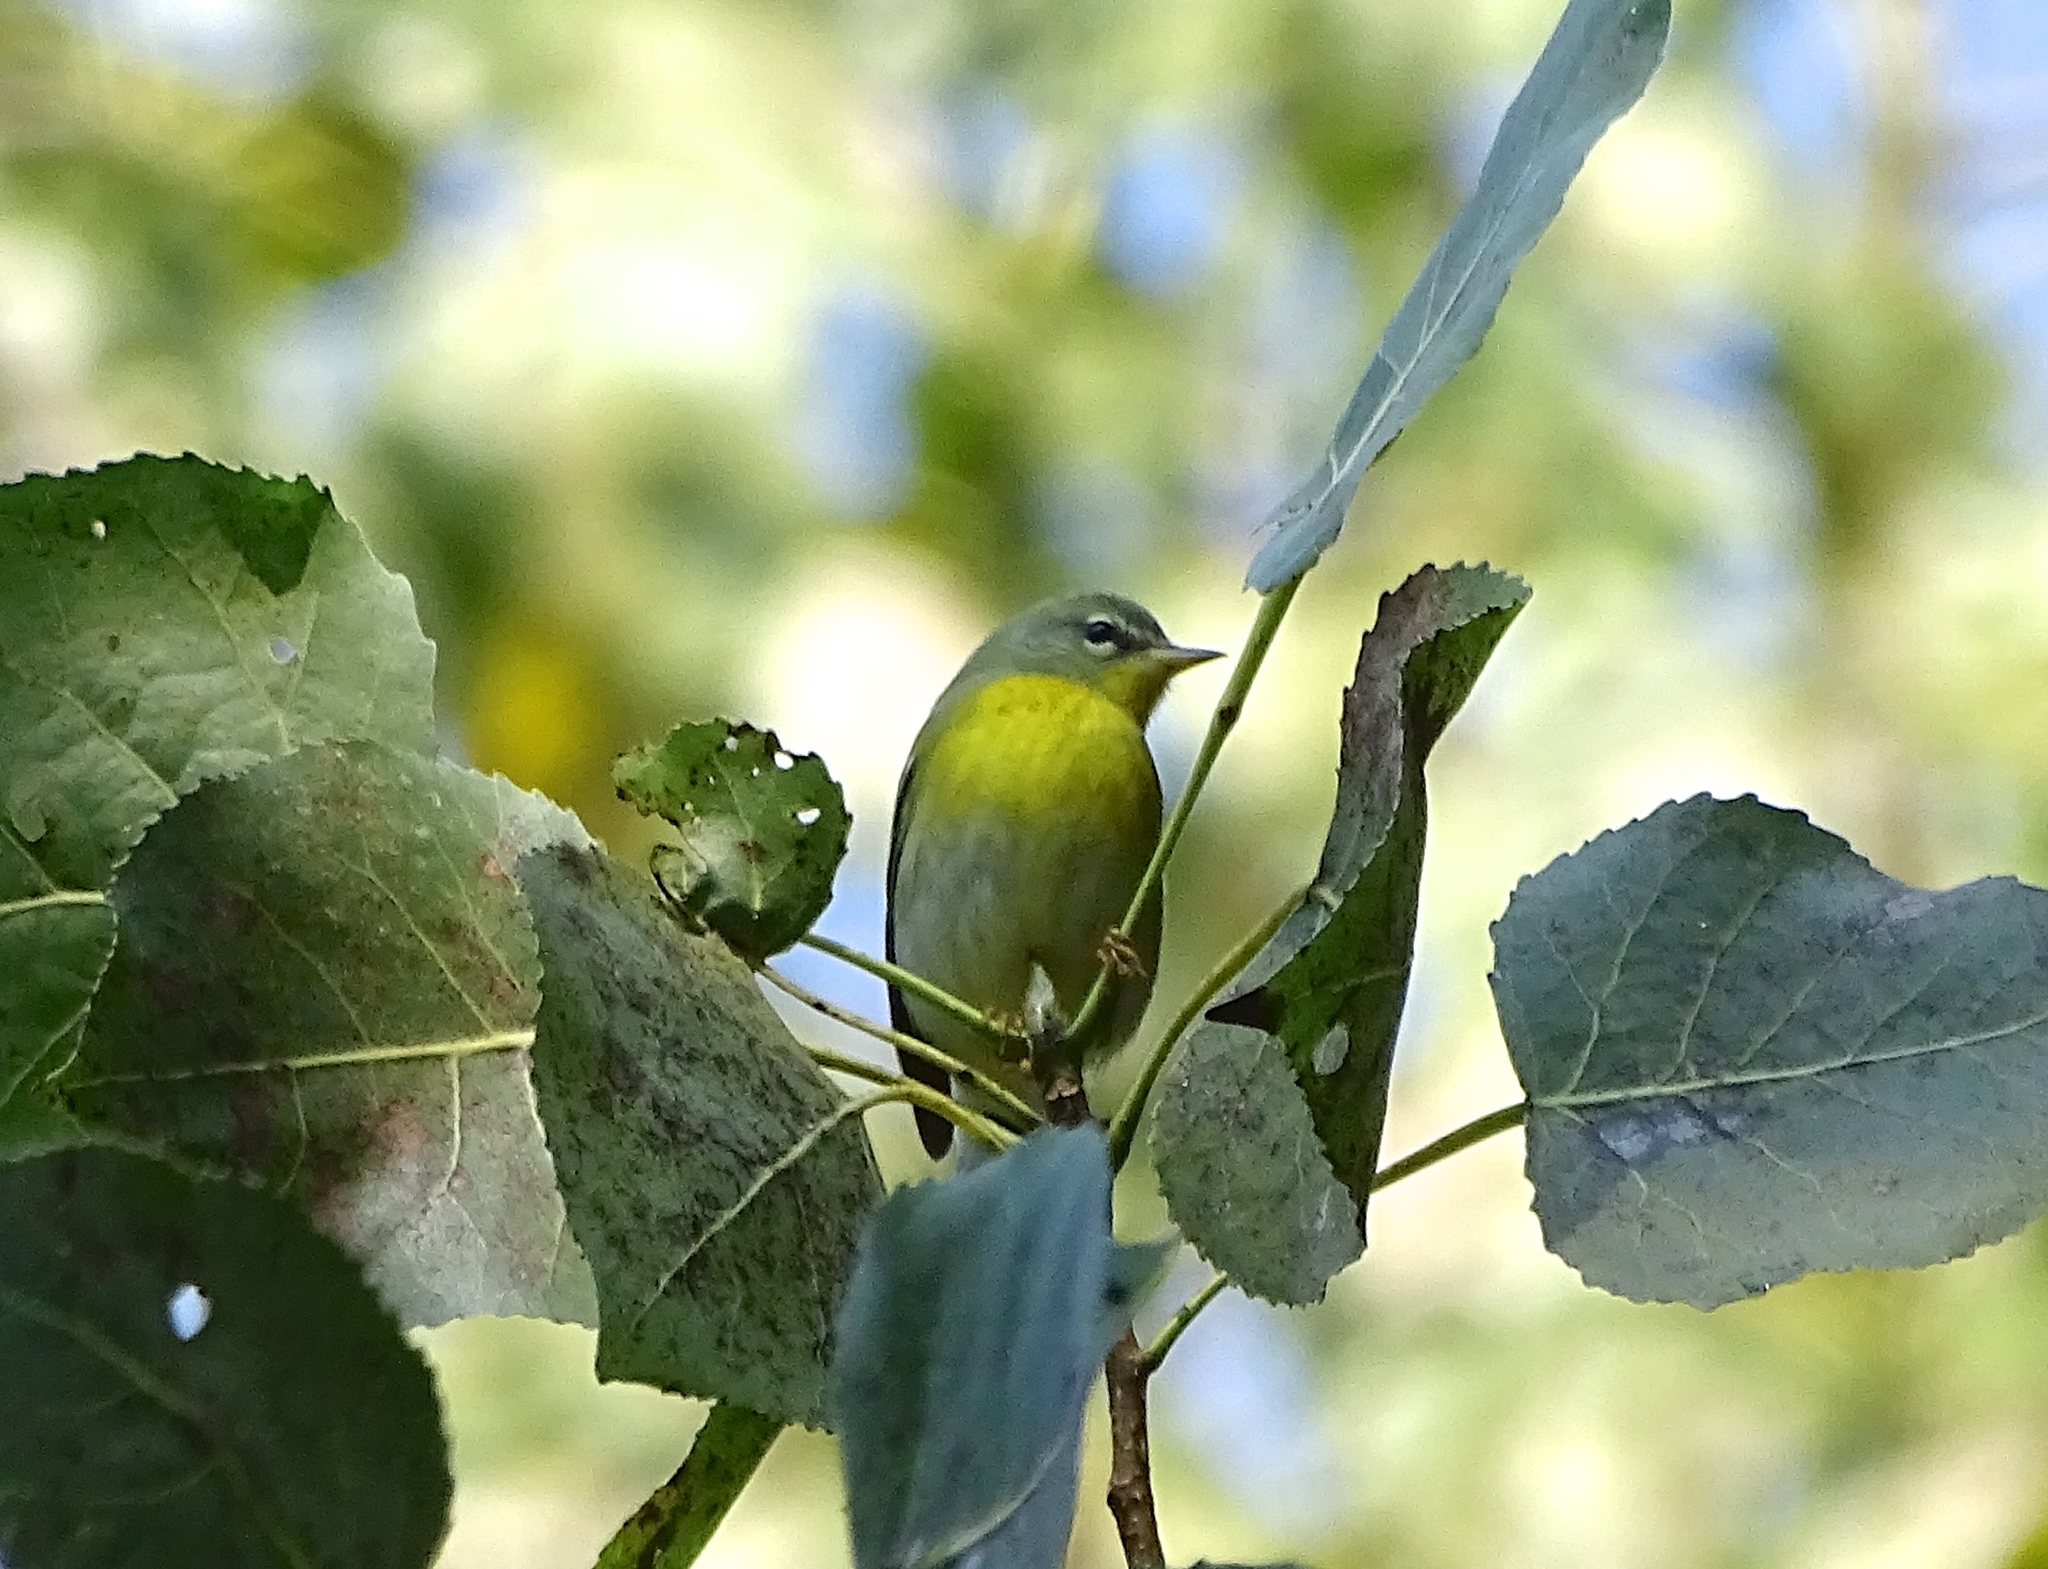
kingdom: Animalia
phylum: Chordata
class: Aves
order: Passeriformes
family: Parulidae
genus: Setophaga
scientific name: Setophaga americana
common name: Northern parula
